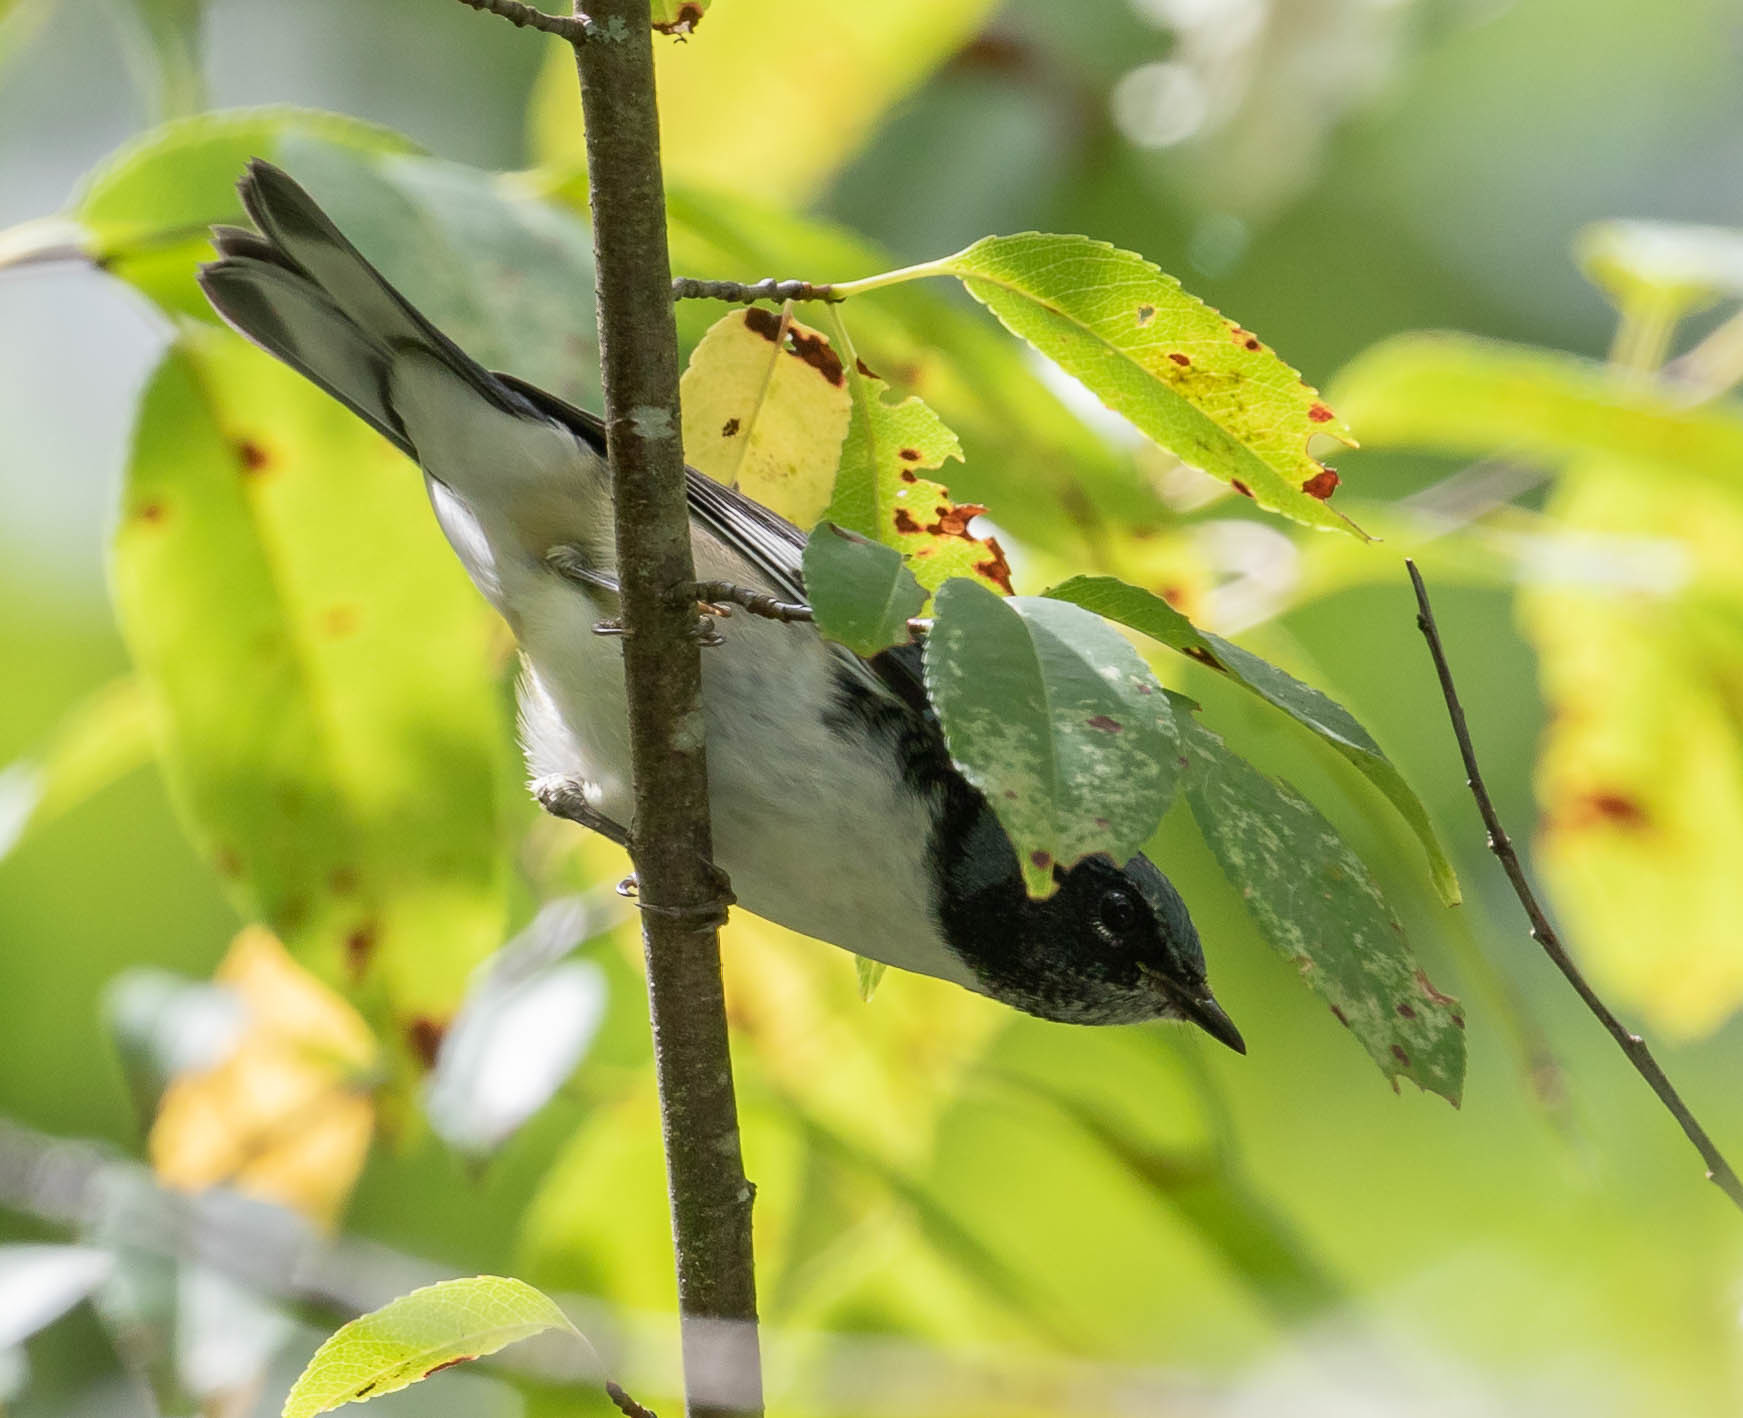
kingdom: Animalia
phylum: Chordata
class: Aves
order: Passeriformes
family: Parulidae
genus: Setophaga
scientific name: Setophaga caerulescens
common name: Black-throated blue warbler
